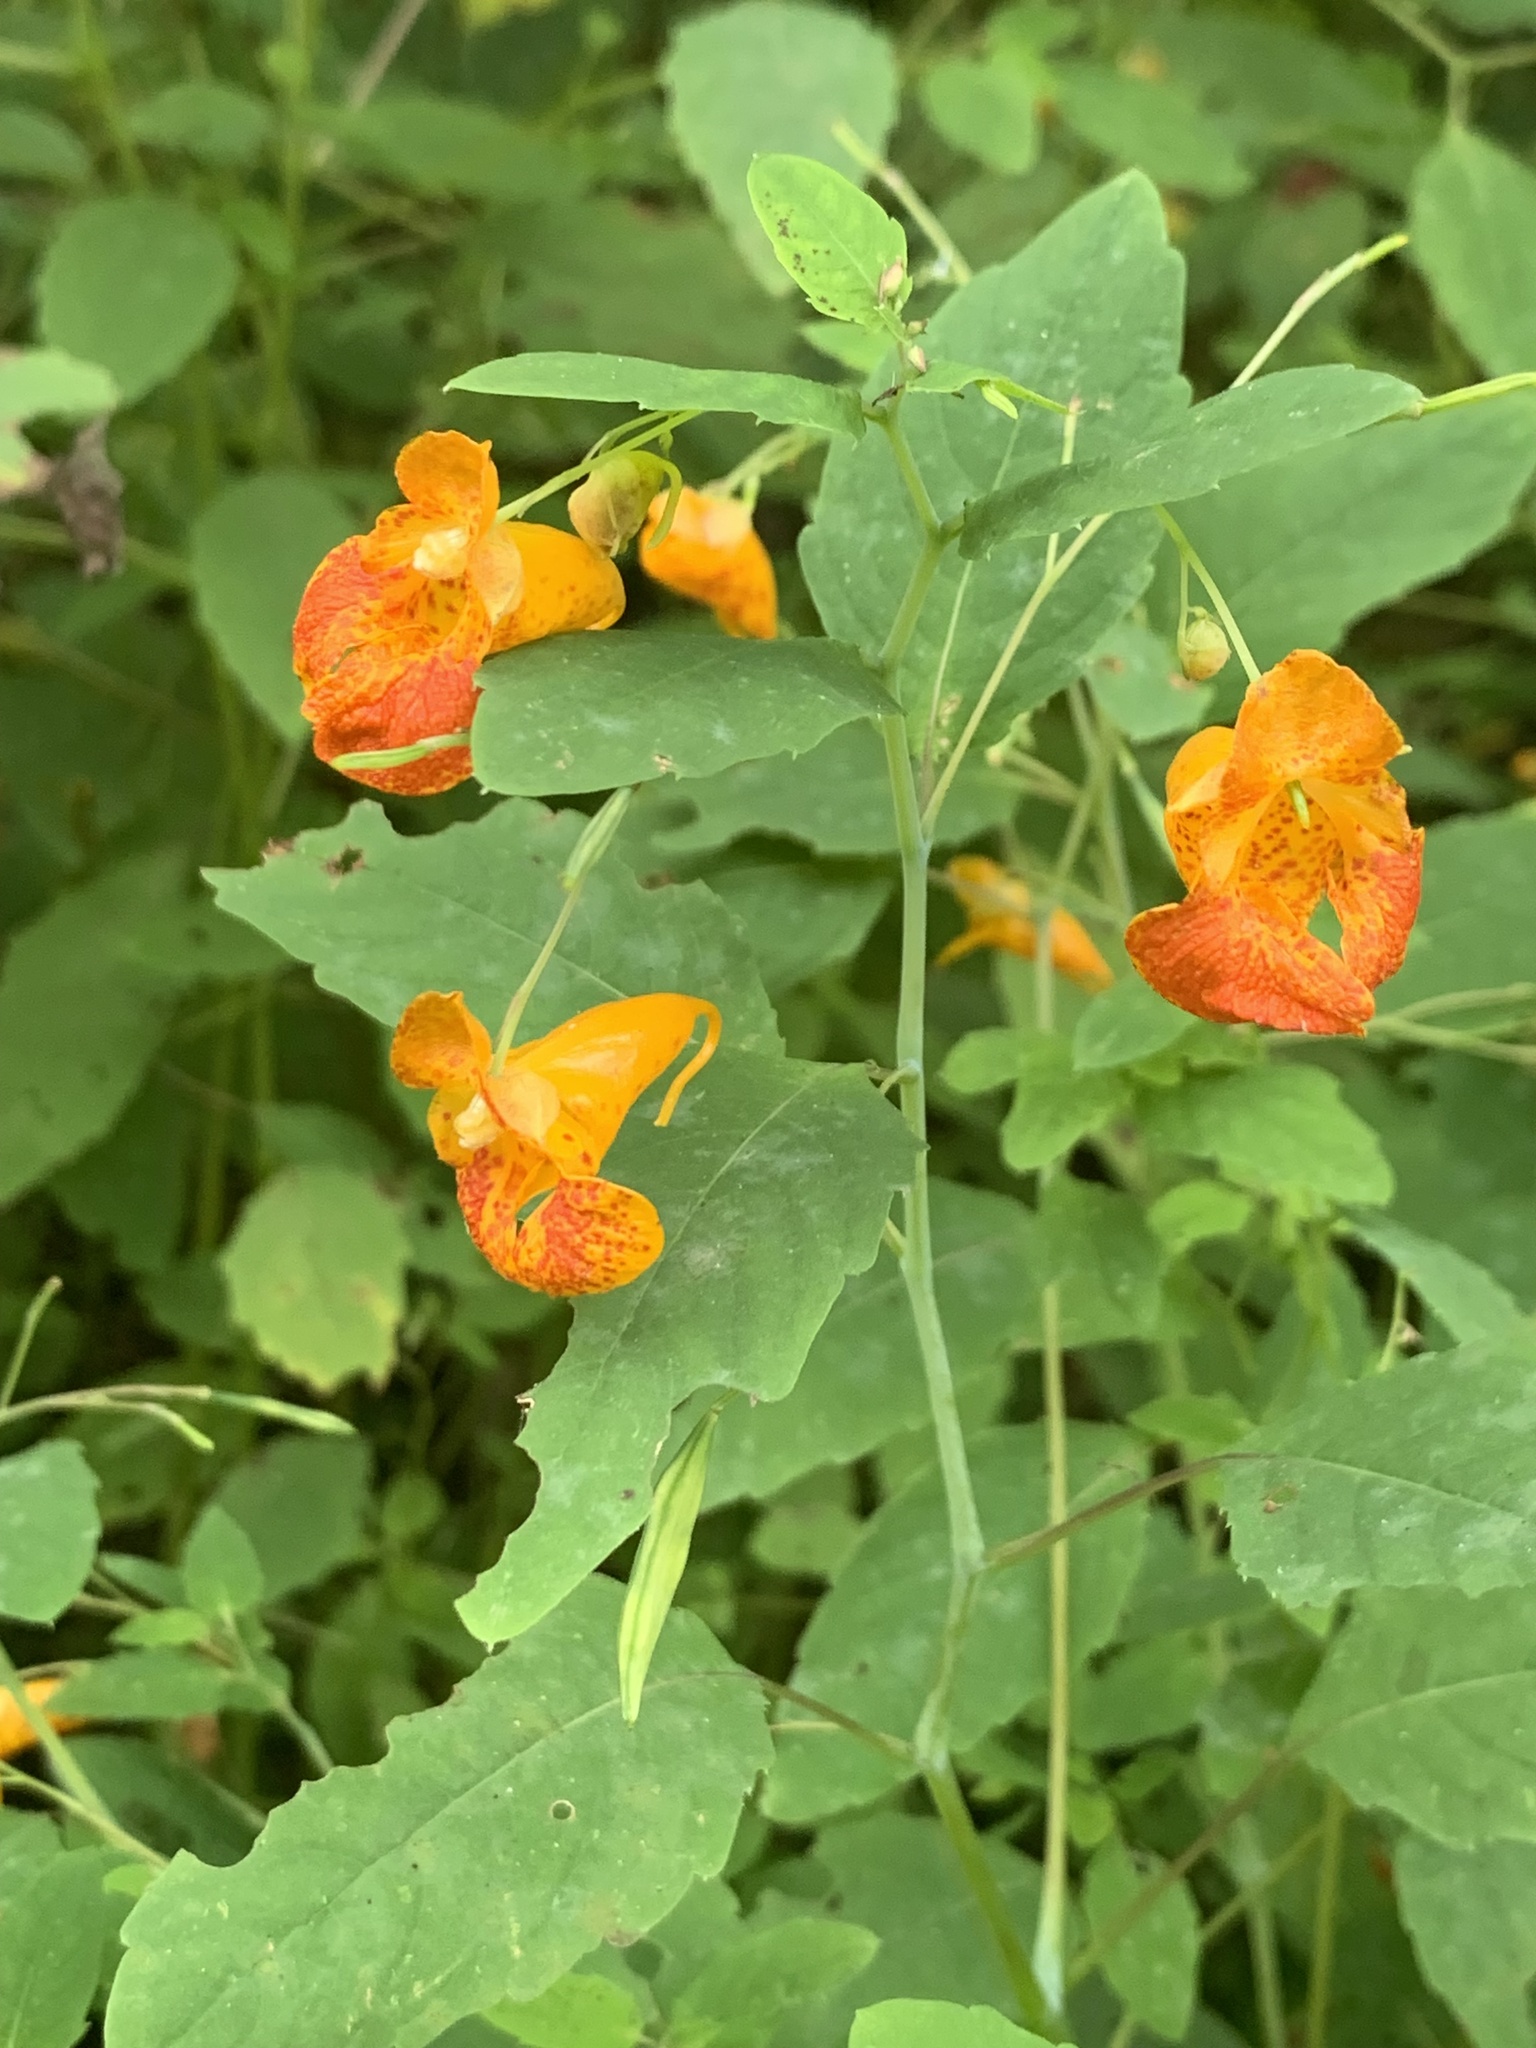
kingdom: Plantae
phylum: Tracheophyta
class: Magnoliopsida
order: Ericales
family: Balsaminaceae
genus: Impatiens
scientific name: Impatiens capensis
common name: Orange balsam
